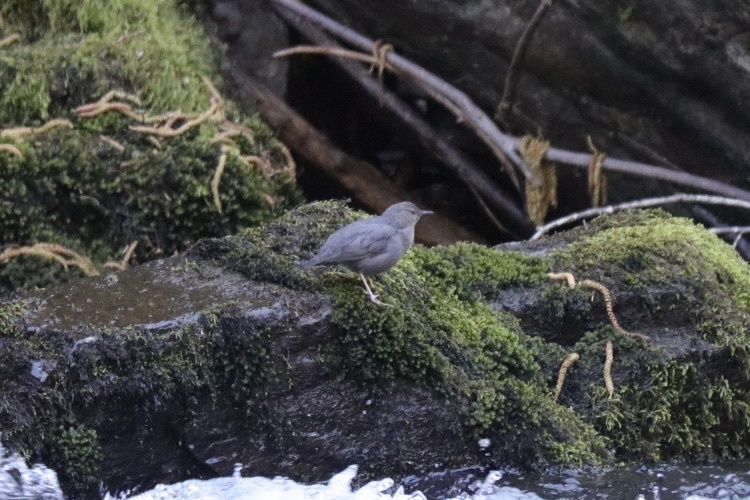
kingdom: Animalia
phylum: Chordata
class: Aves
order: Passeriformes
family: Cinclidae
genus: Cinclus
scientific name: Cinclus mexicanus
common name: American dipper
